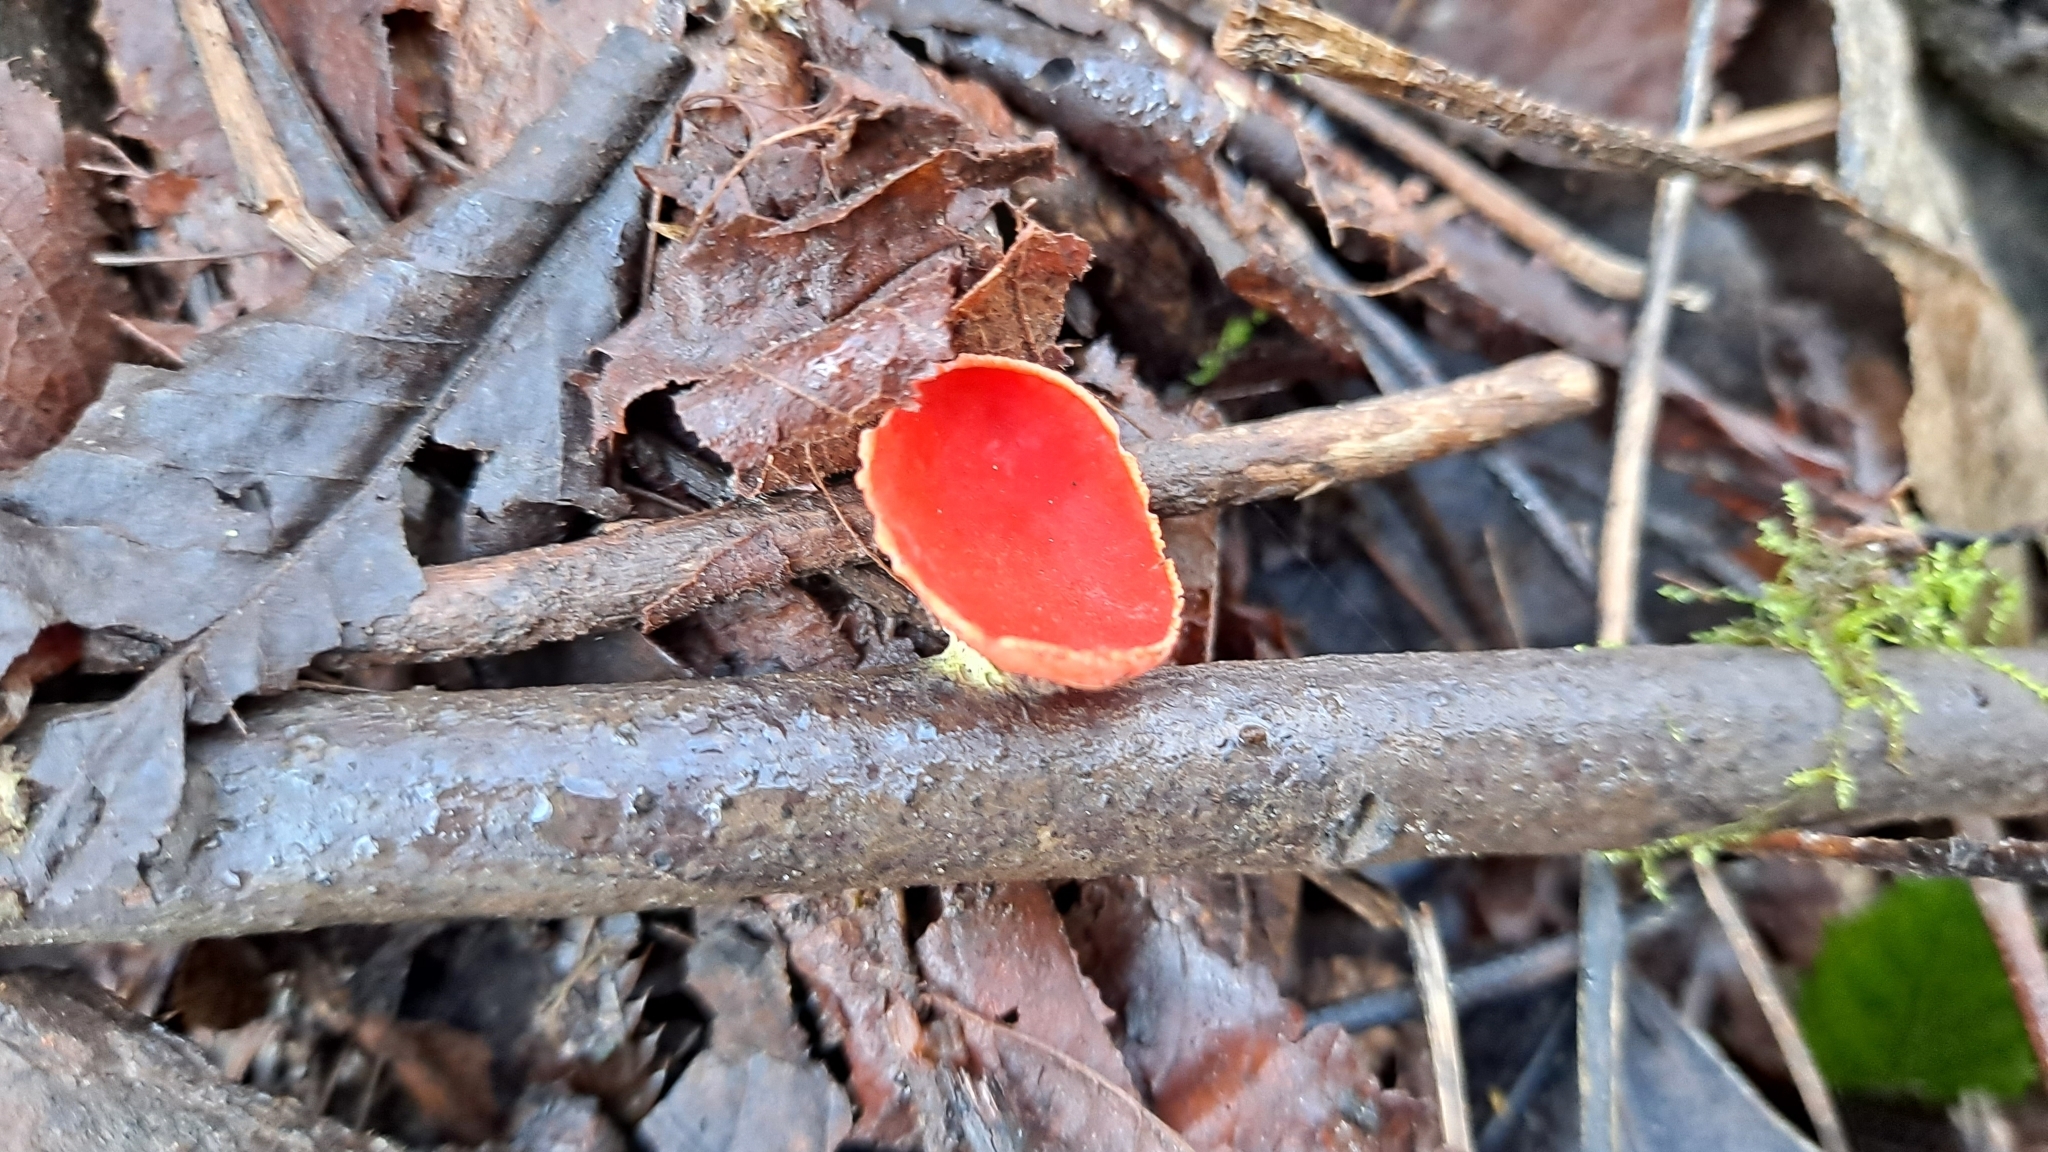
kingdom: Fungi
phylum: Ascomycota
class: Pezizomycetes
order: Pezizales
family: Sarcoscyphaceae
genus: Sarcoscypha
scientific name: Sarcoscypha coccinea
